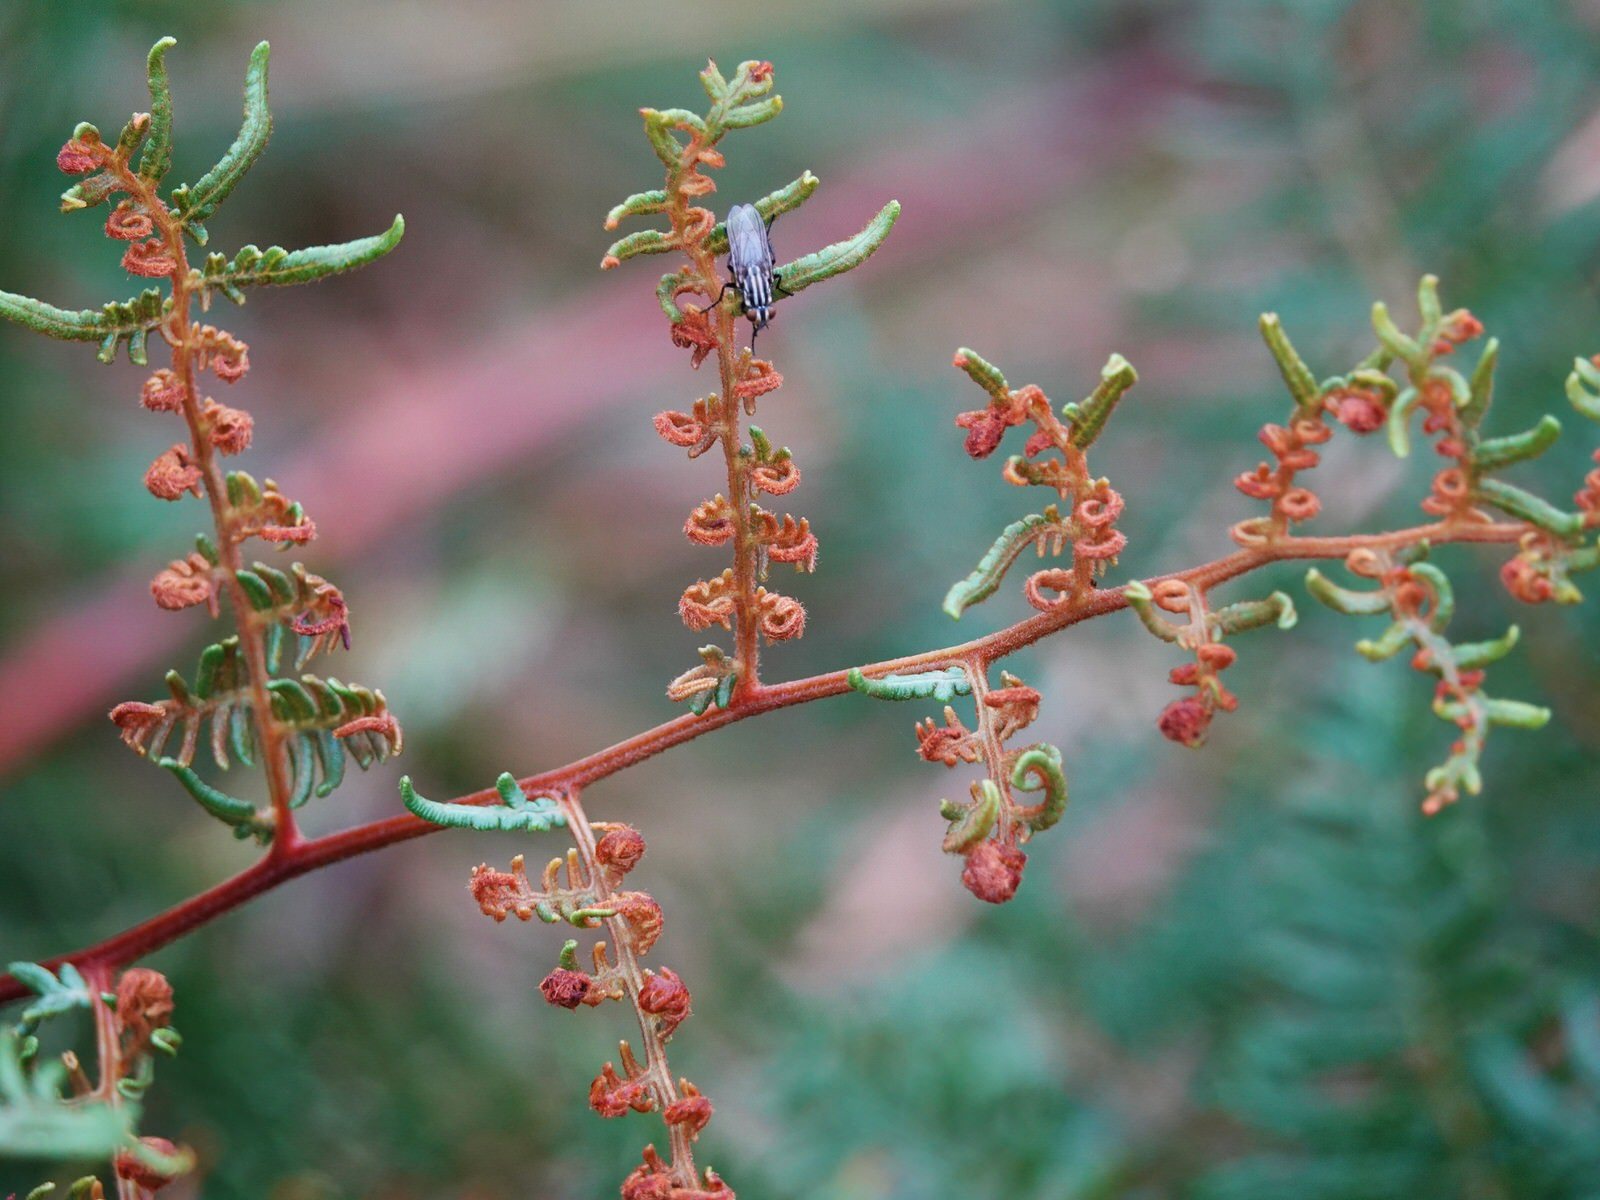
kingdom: Animalia
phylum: Arthropoda
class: Insecta
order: Diptera
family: Sarcophagidae
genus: Oxysarcodexia
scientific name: Oxysarcodexia varia
